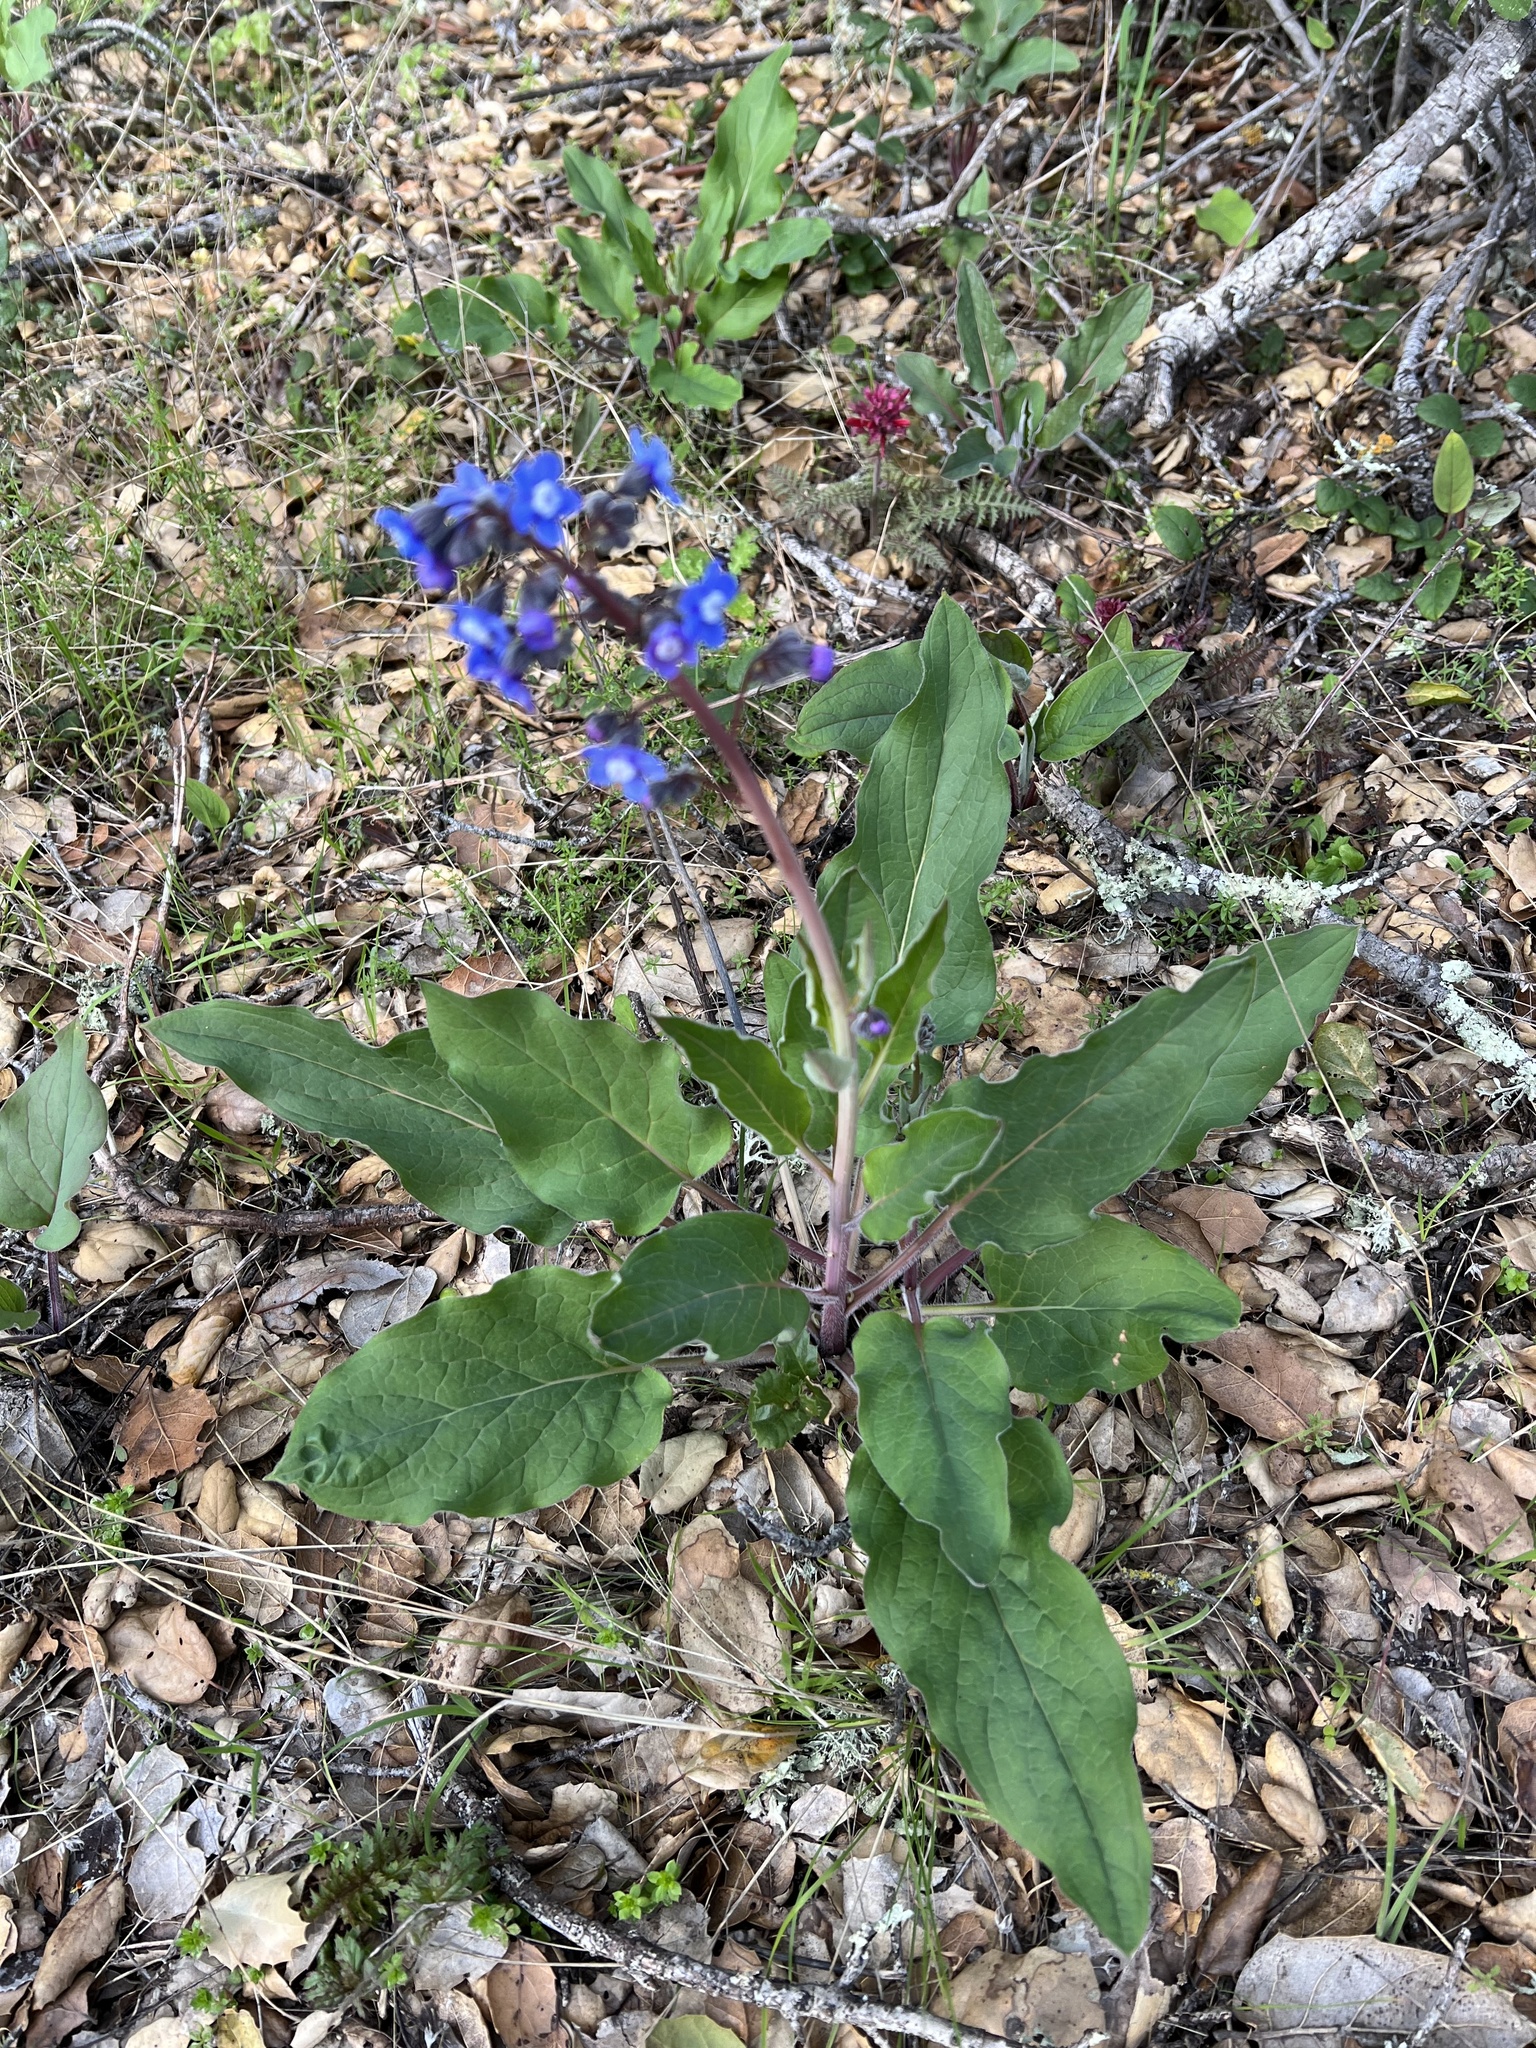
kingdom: Plantae
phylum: Tracheophyta
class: Magnoliopsida
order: Boraginales
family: Boraginaceae
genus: Adelinia
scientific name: Adelinia grande
